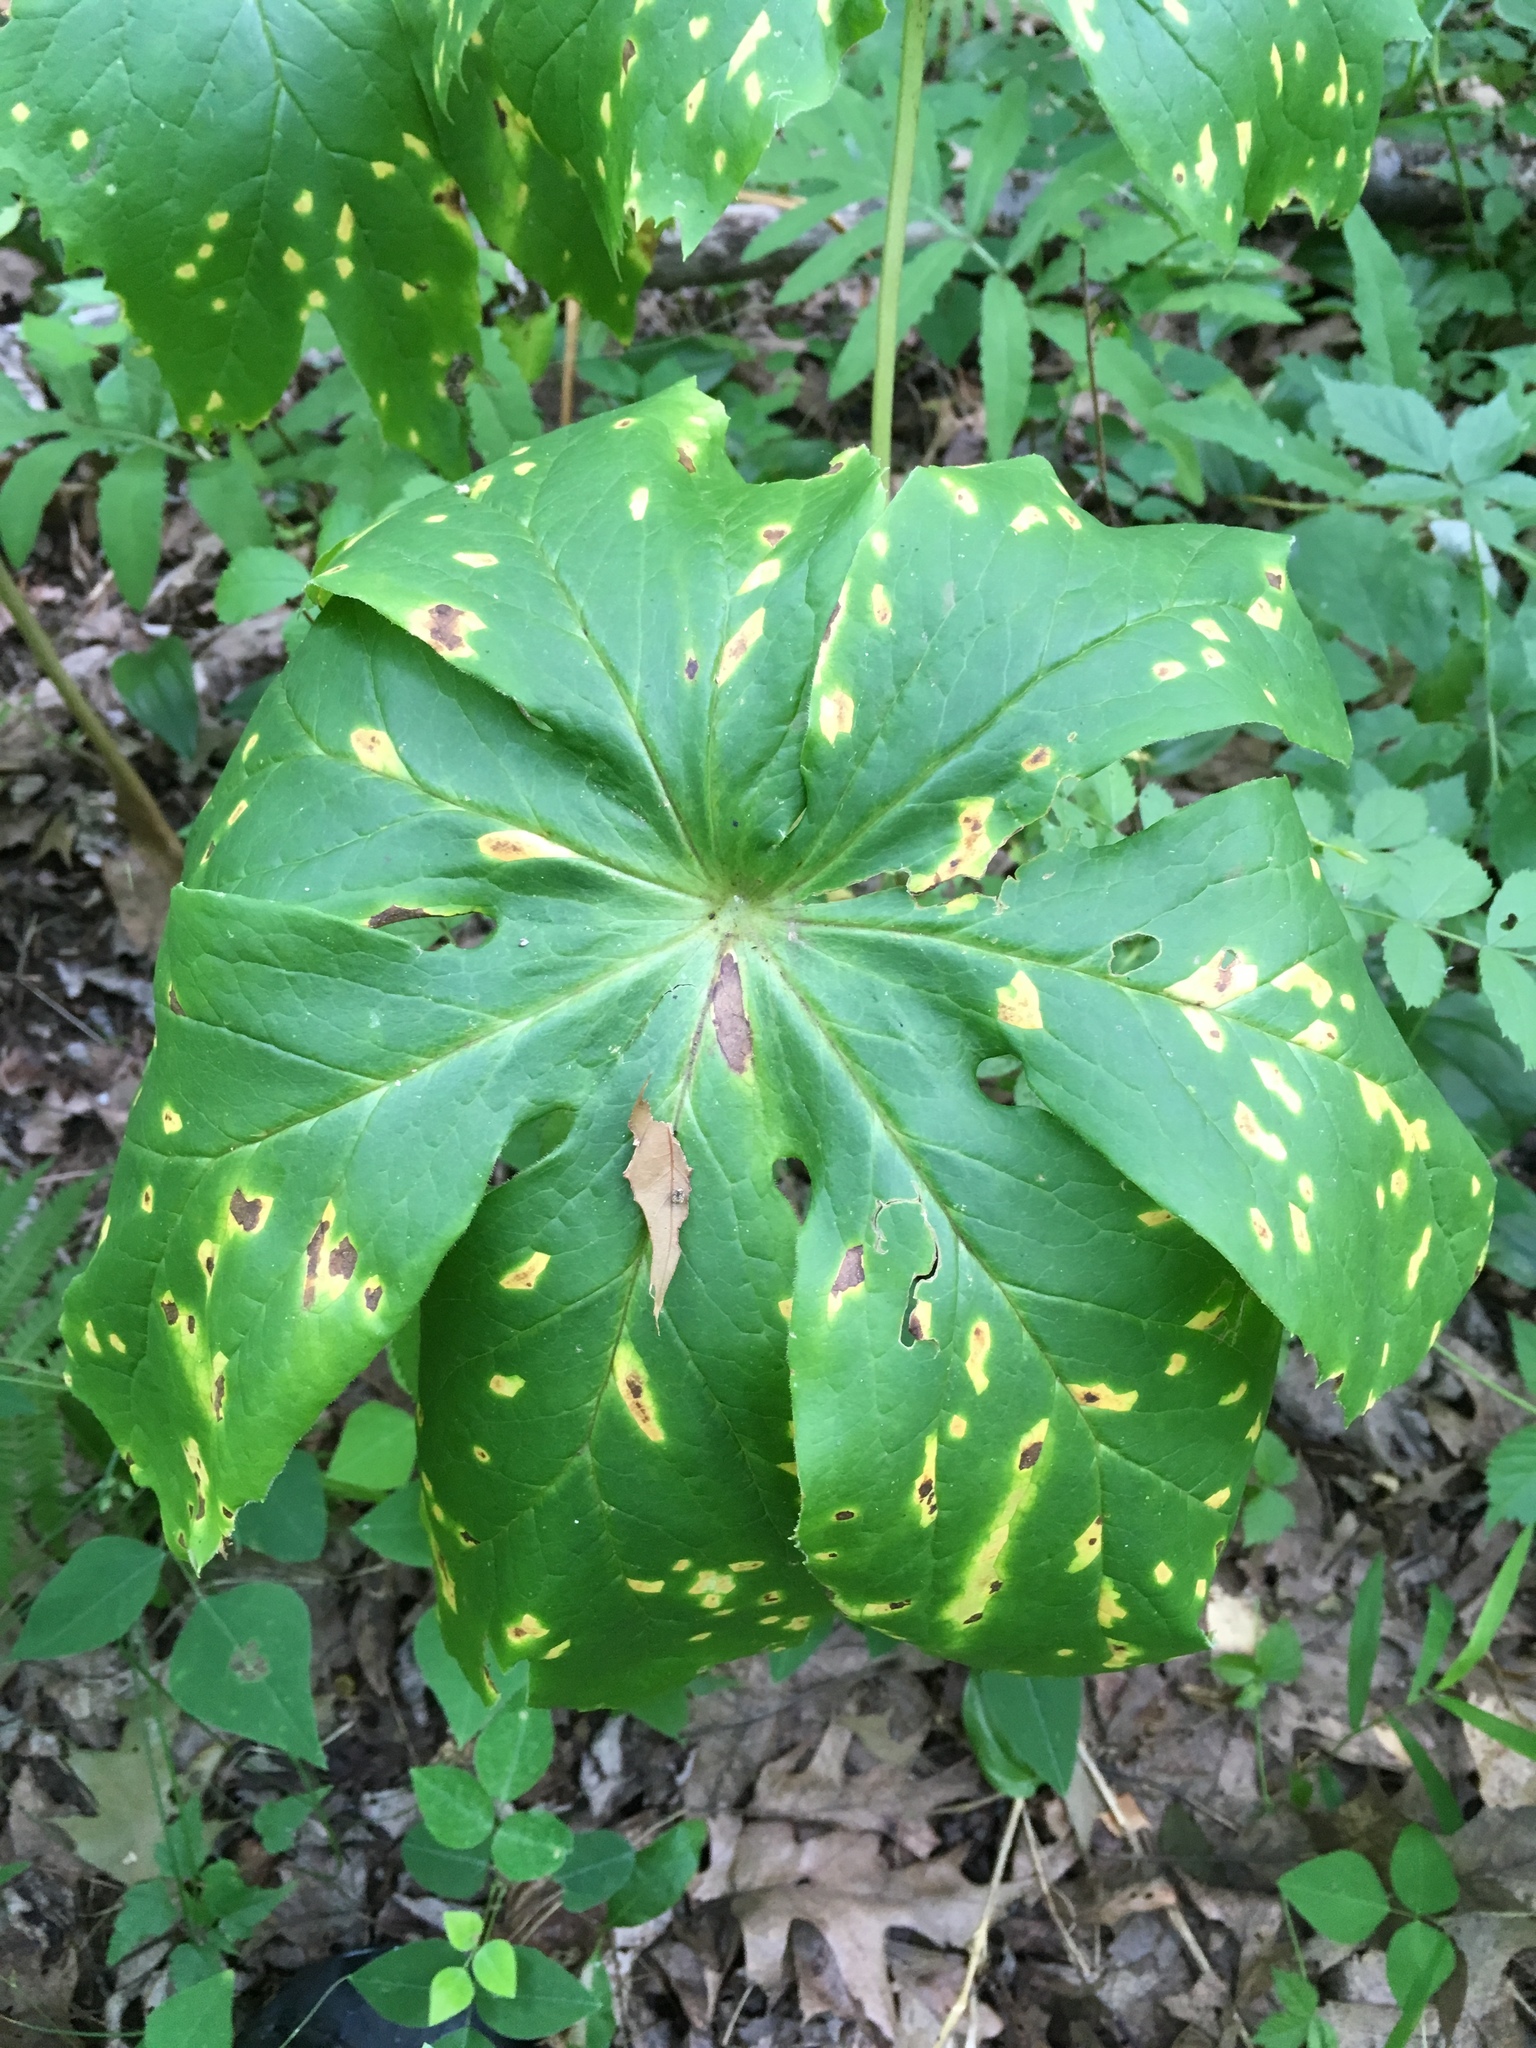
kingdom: Plantae
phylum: Tracheophyta
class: Magnoliopsida
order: Ranunculales
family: Berberidaceae
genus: Podophyllum
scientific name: Podophyllum peltatum
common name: Wild mandrake
